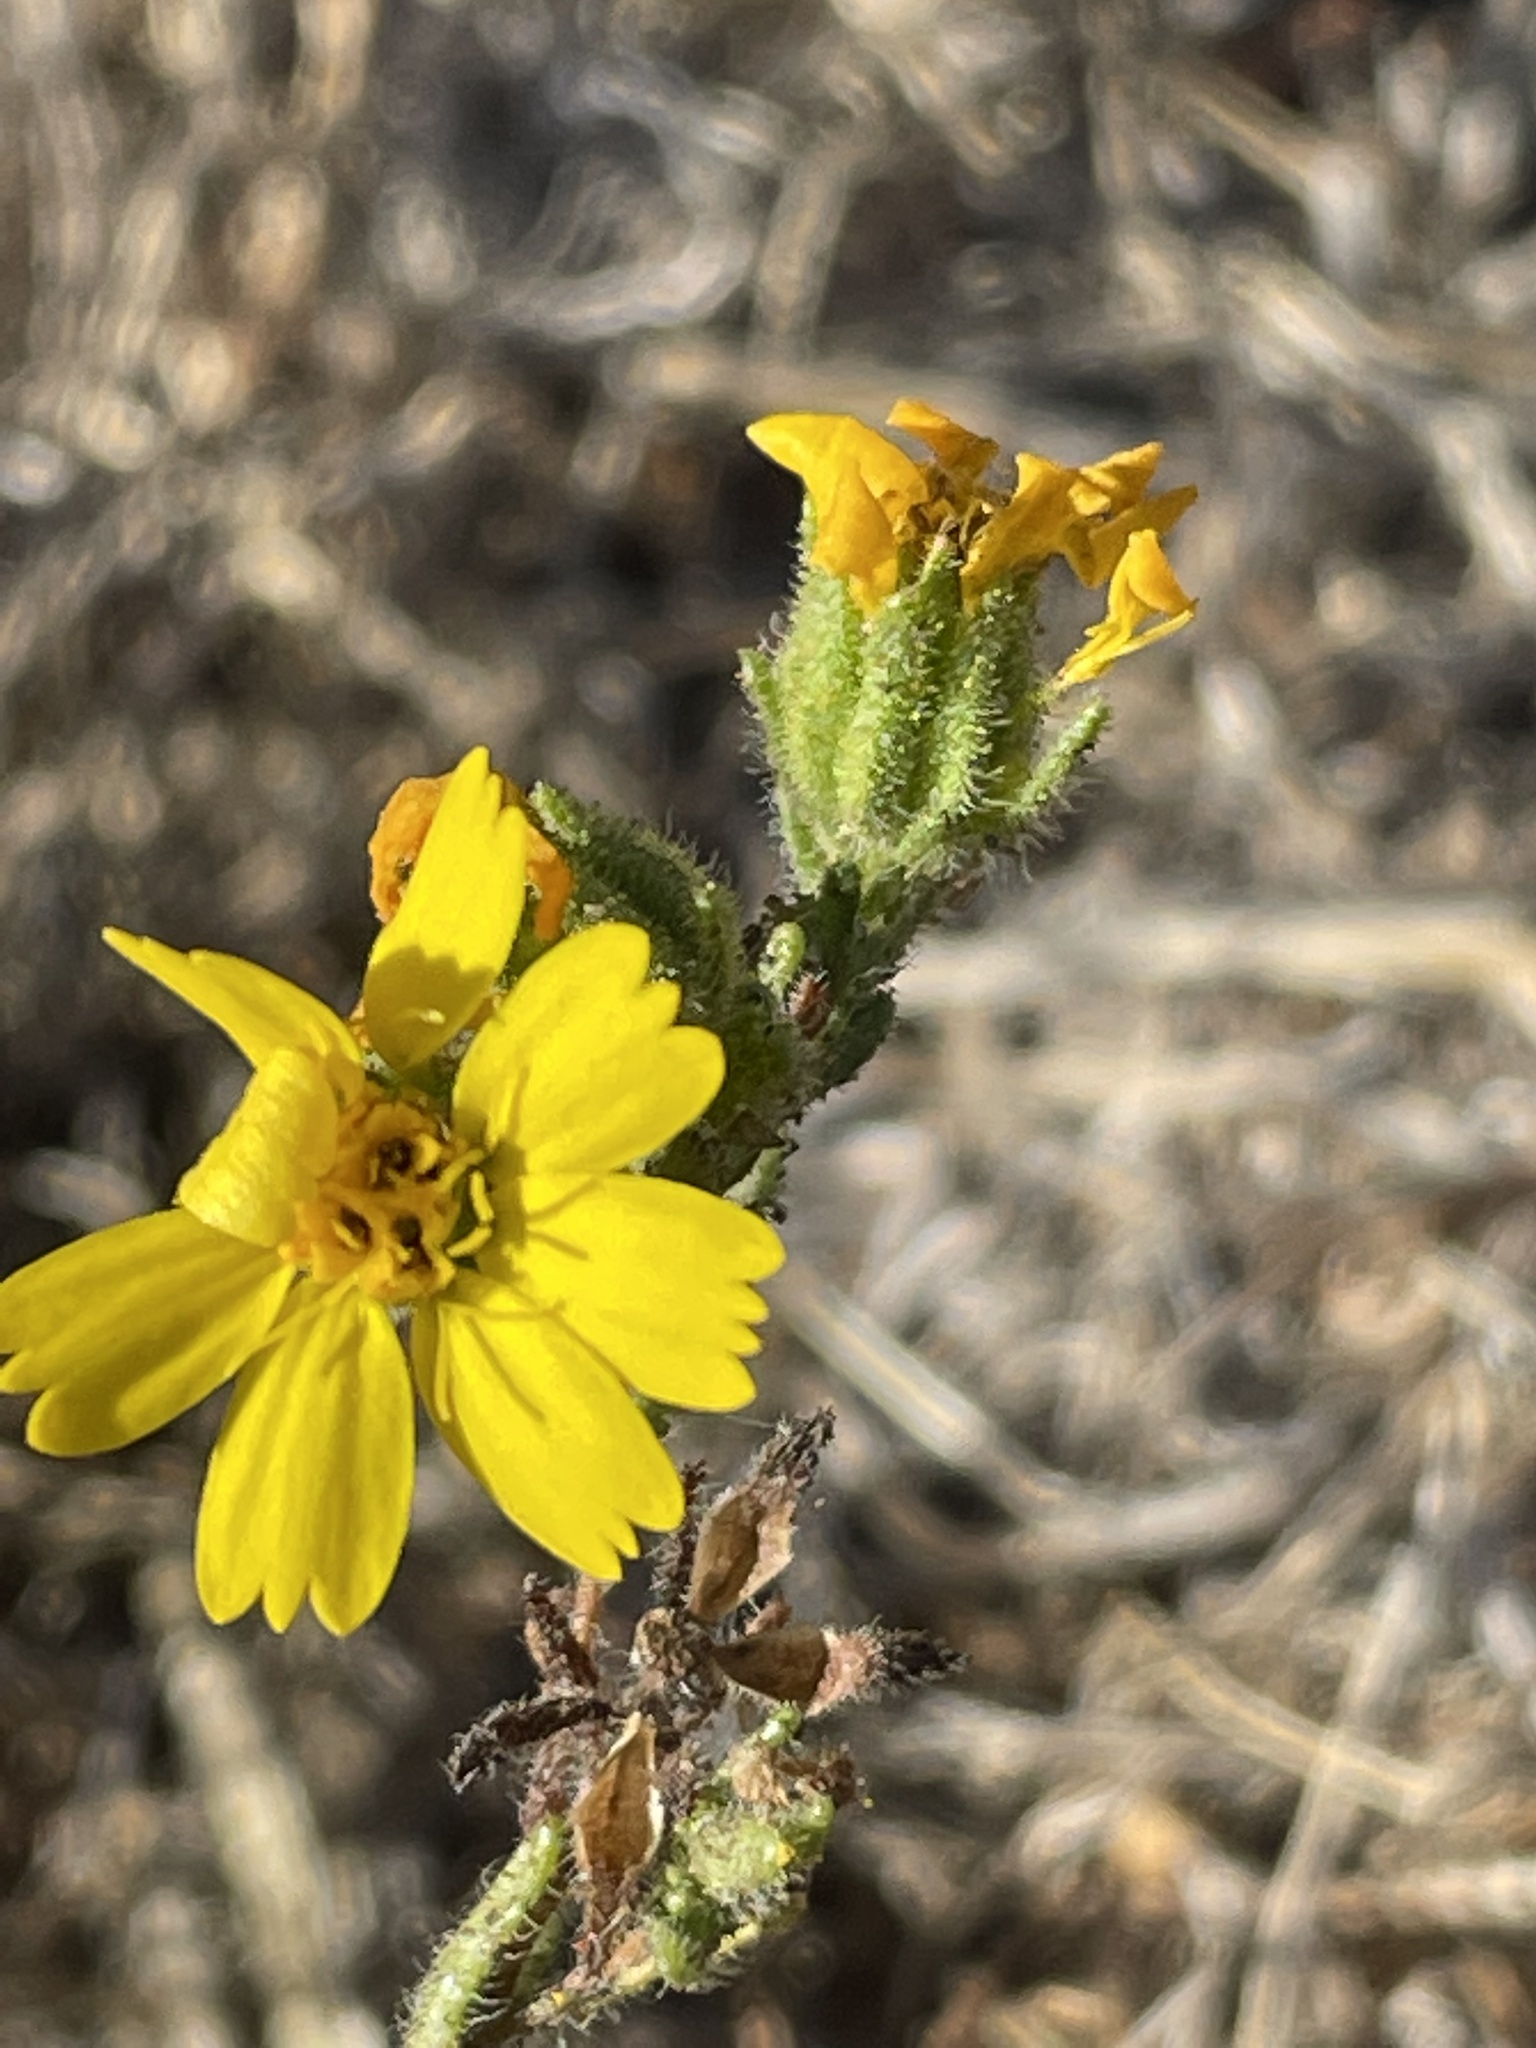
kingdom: Plantae
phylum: Tracheophyta
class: Magnoliopsida
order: Asterales
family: Asteraceae
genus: Deinandra
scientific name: Deinandra paniculata
